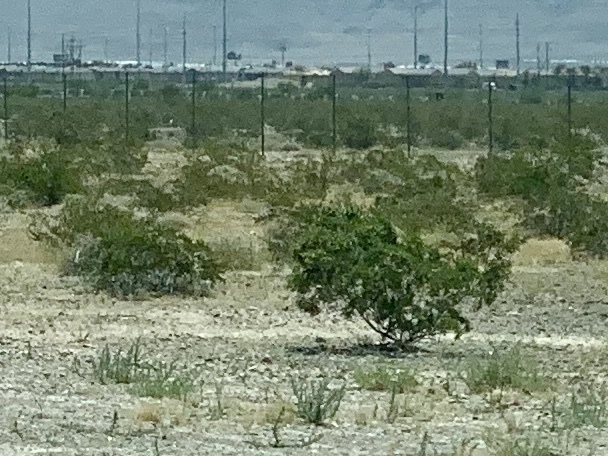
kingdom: Plantae
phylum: Tracheophyta
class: Magnoliopsida
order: Zygophyllales
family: Zygophyllaceae
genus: Larrea
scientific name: Larrea tridentata
